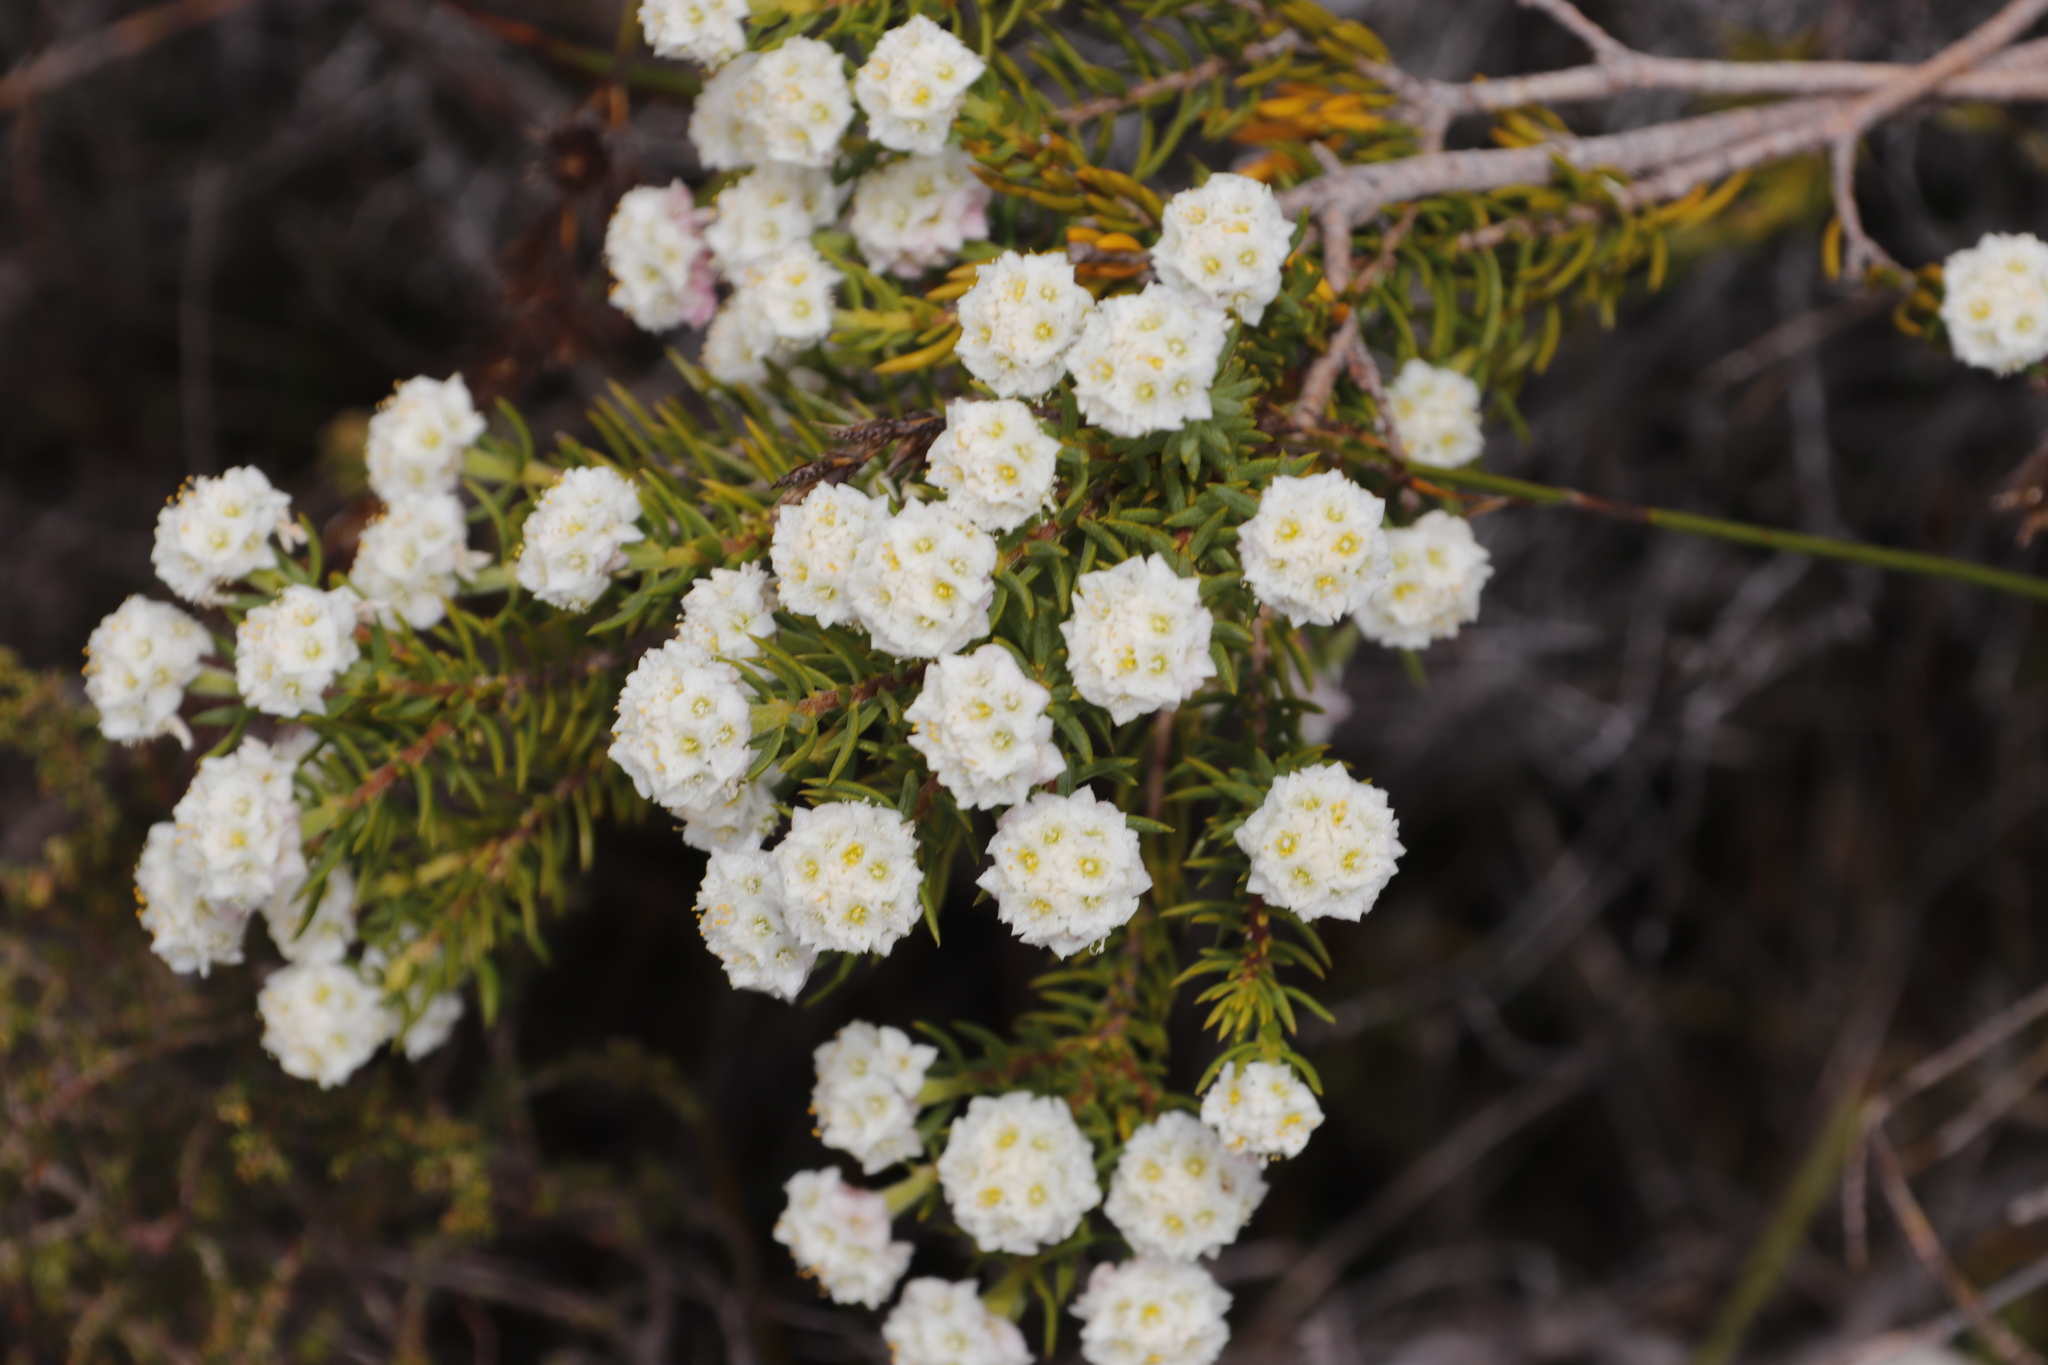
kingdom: Plantae
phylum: Tracheophyta
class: Magnoliopsida
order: Malvales
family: Thymelaeaceae
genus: Lachnaea
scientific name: Lachnaea densiflora
